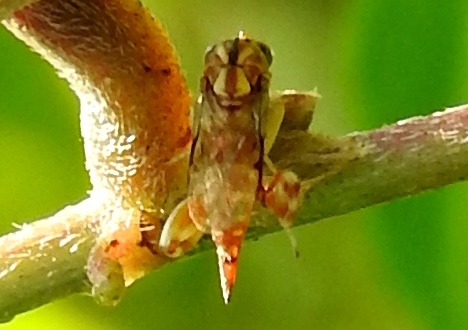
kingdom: Animalia
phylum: Arthropoda
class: Insecta
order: Hymenoptera
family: Chalcididae
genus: Conura
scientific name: Conura
